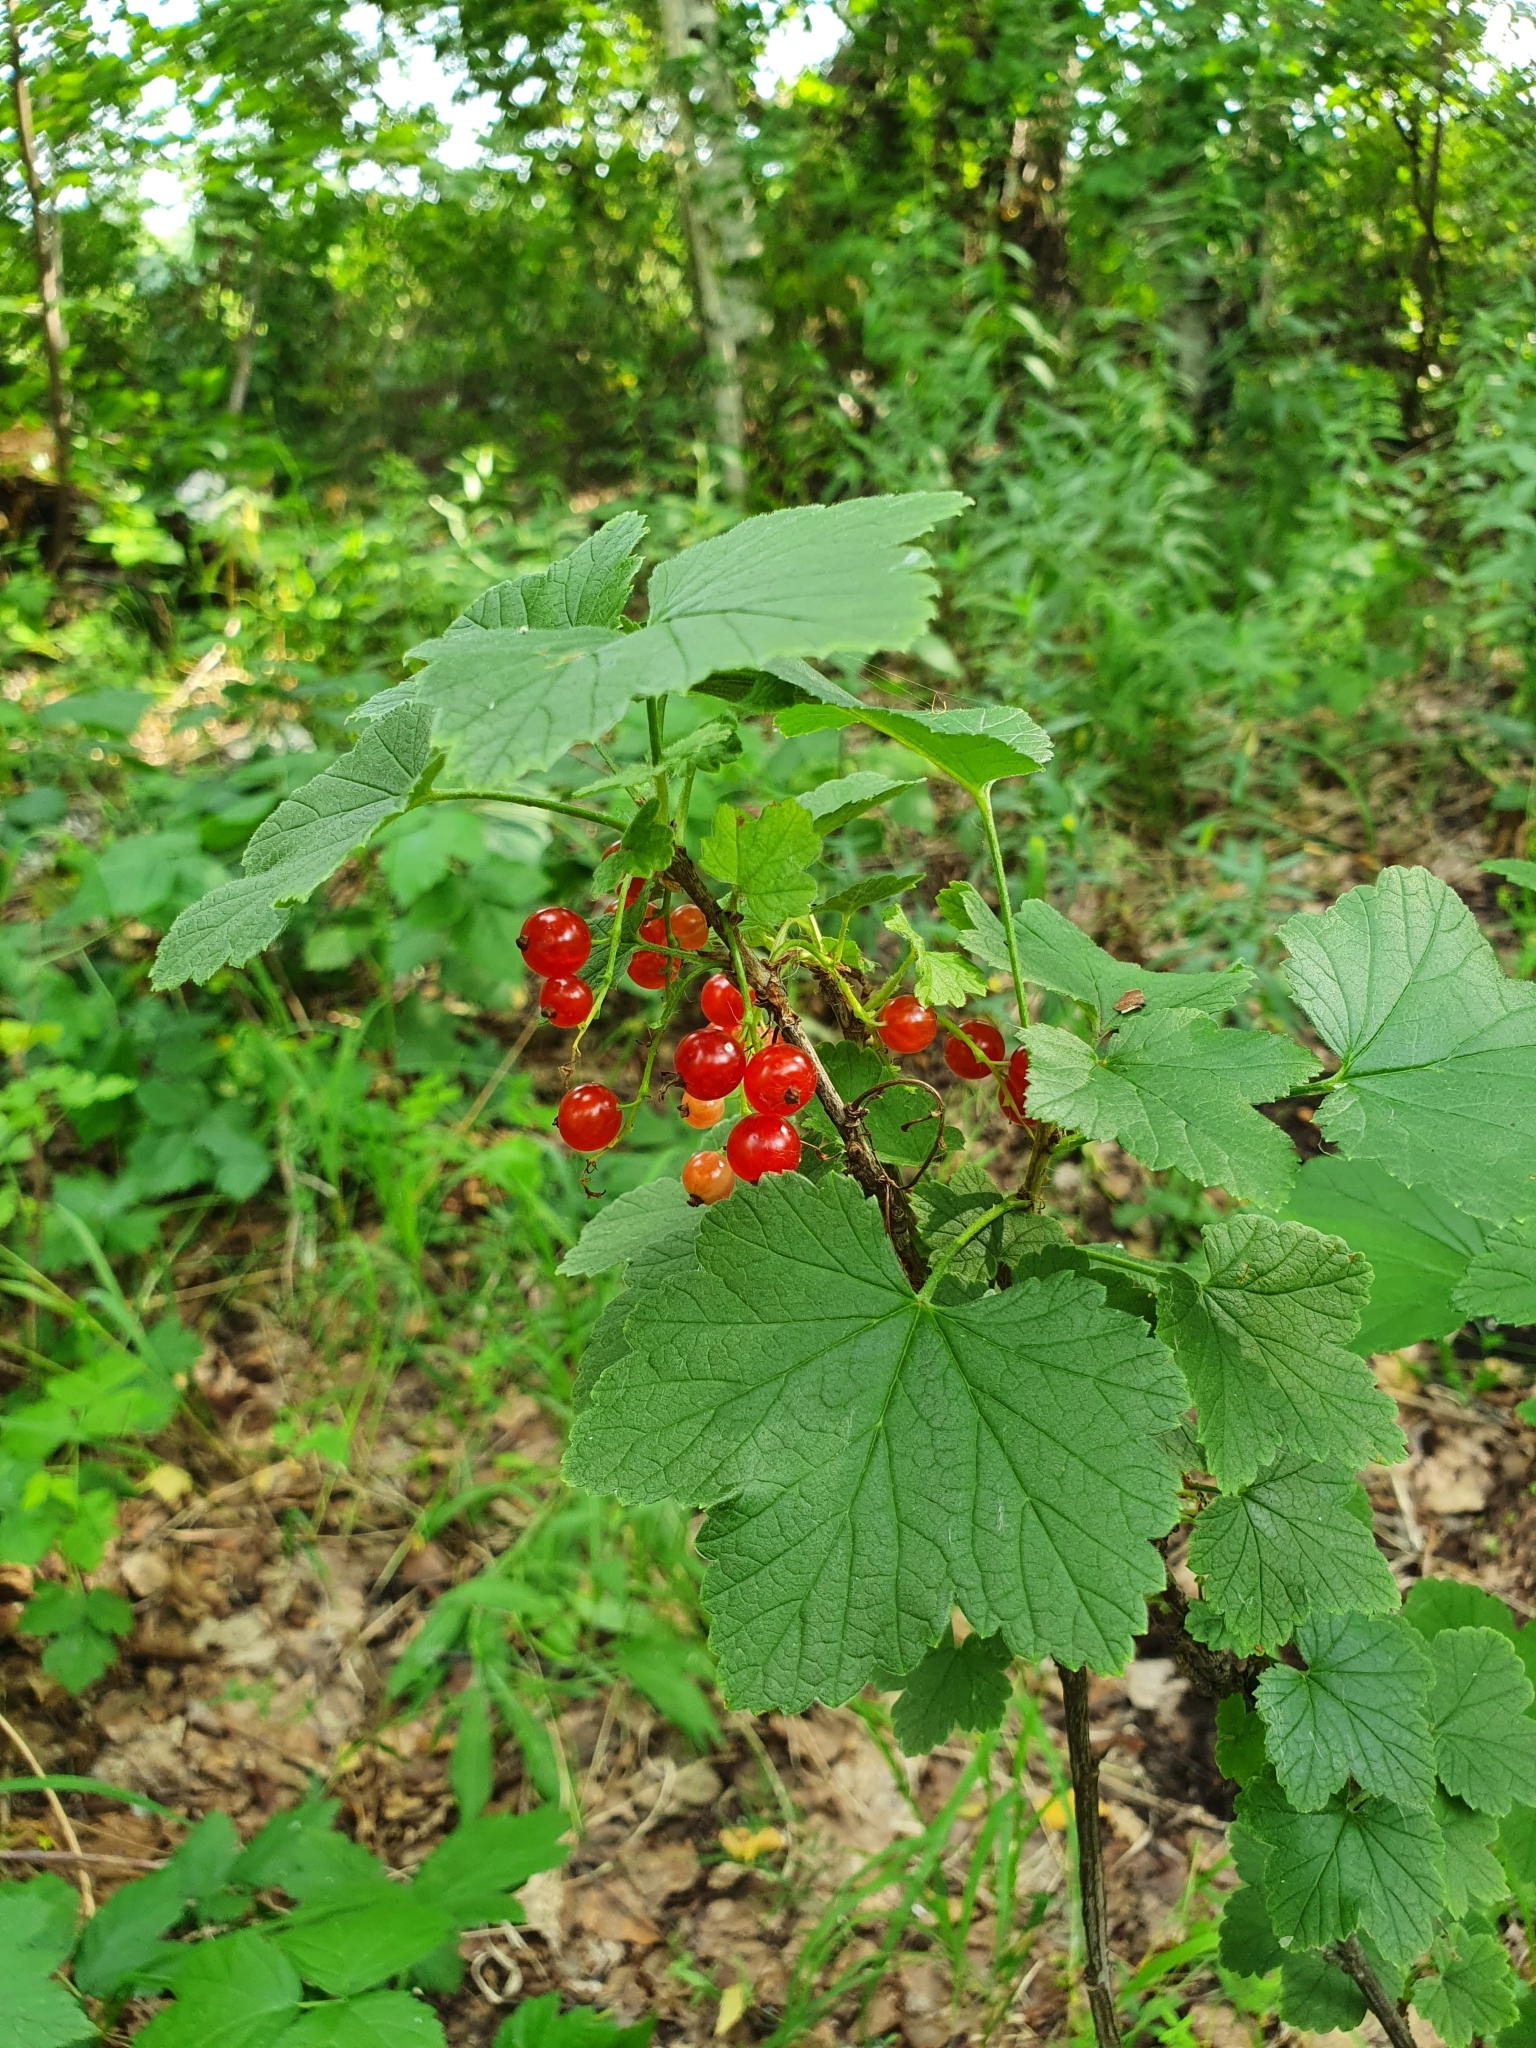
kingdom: Plantae
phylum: Tracheophyta
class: Magnoliopsida
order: Saxifragales
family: Grossulariaceae
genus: Ribes
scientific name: Ribes rubrum
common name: Red currant
